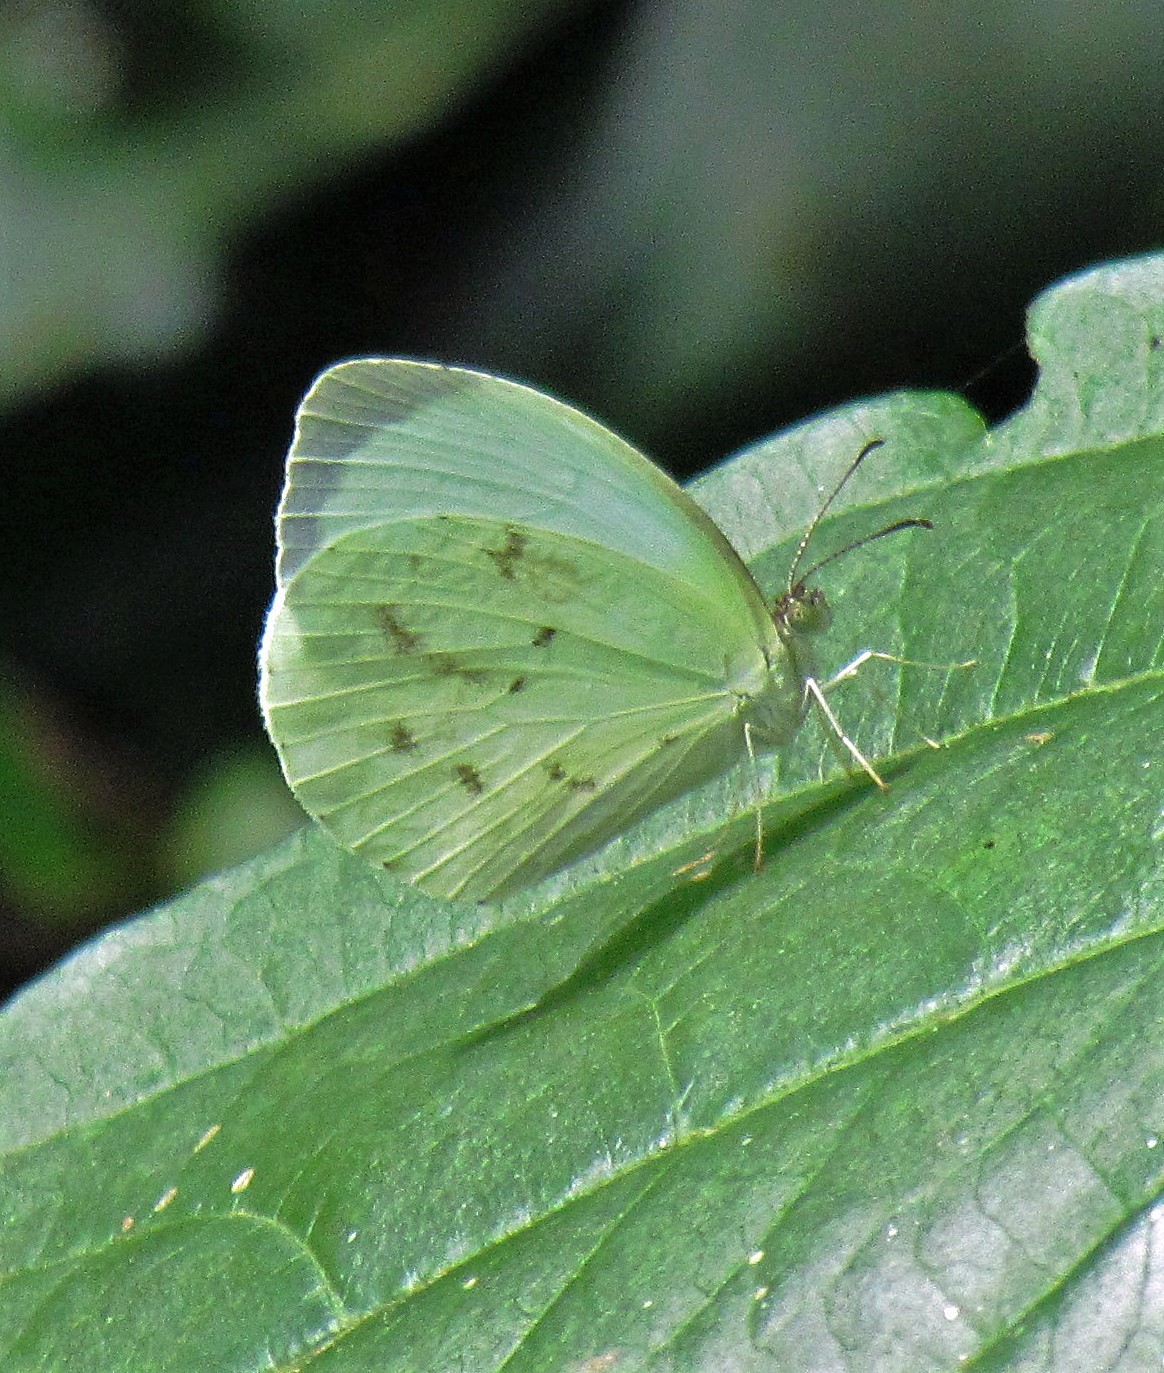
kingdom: Animalia
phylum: Arthropoda
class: Insecta
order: Lepidoptera
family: Pieridae
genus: Abaeis
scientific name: Abaeis albula
